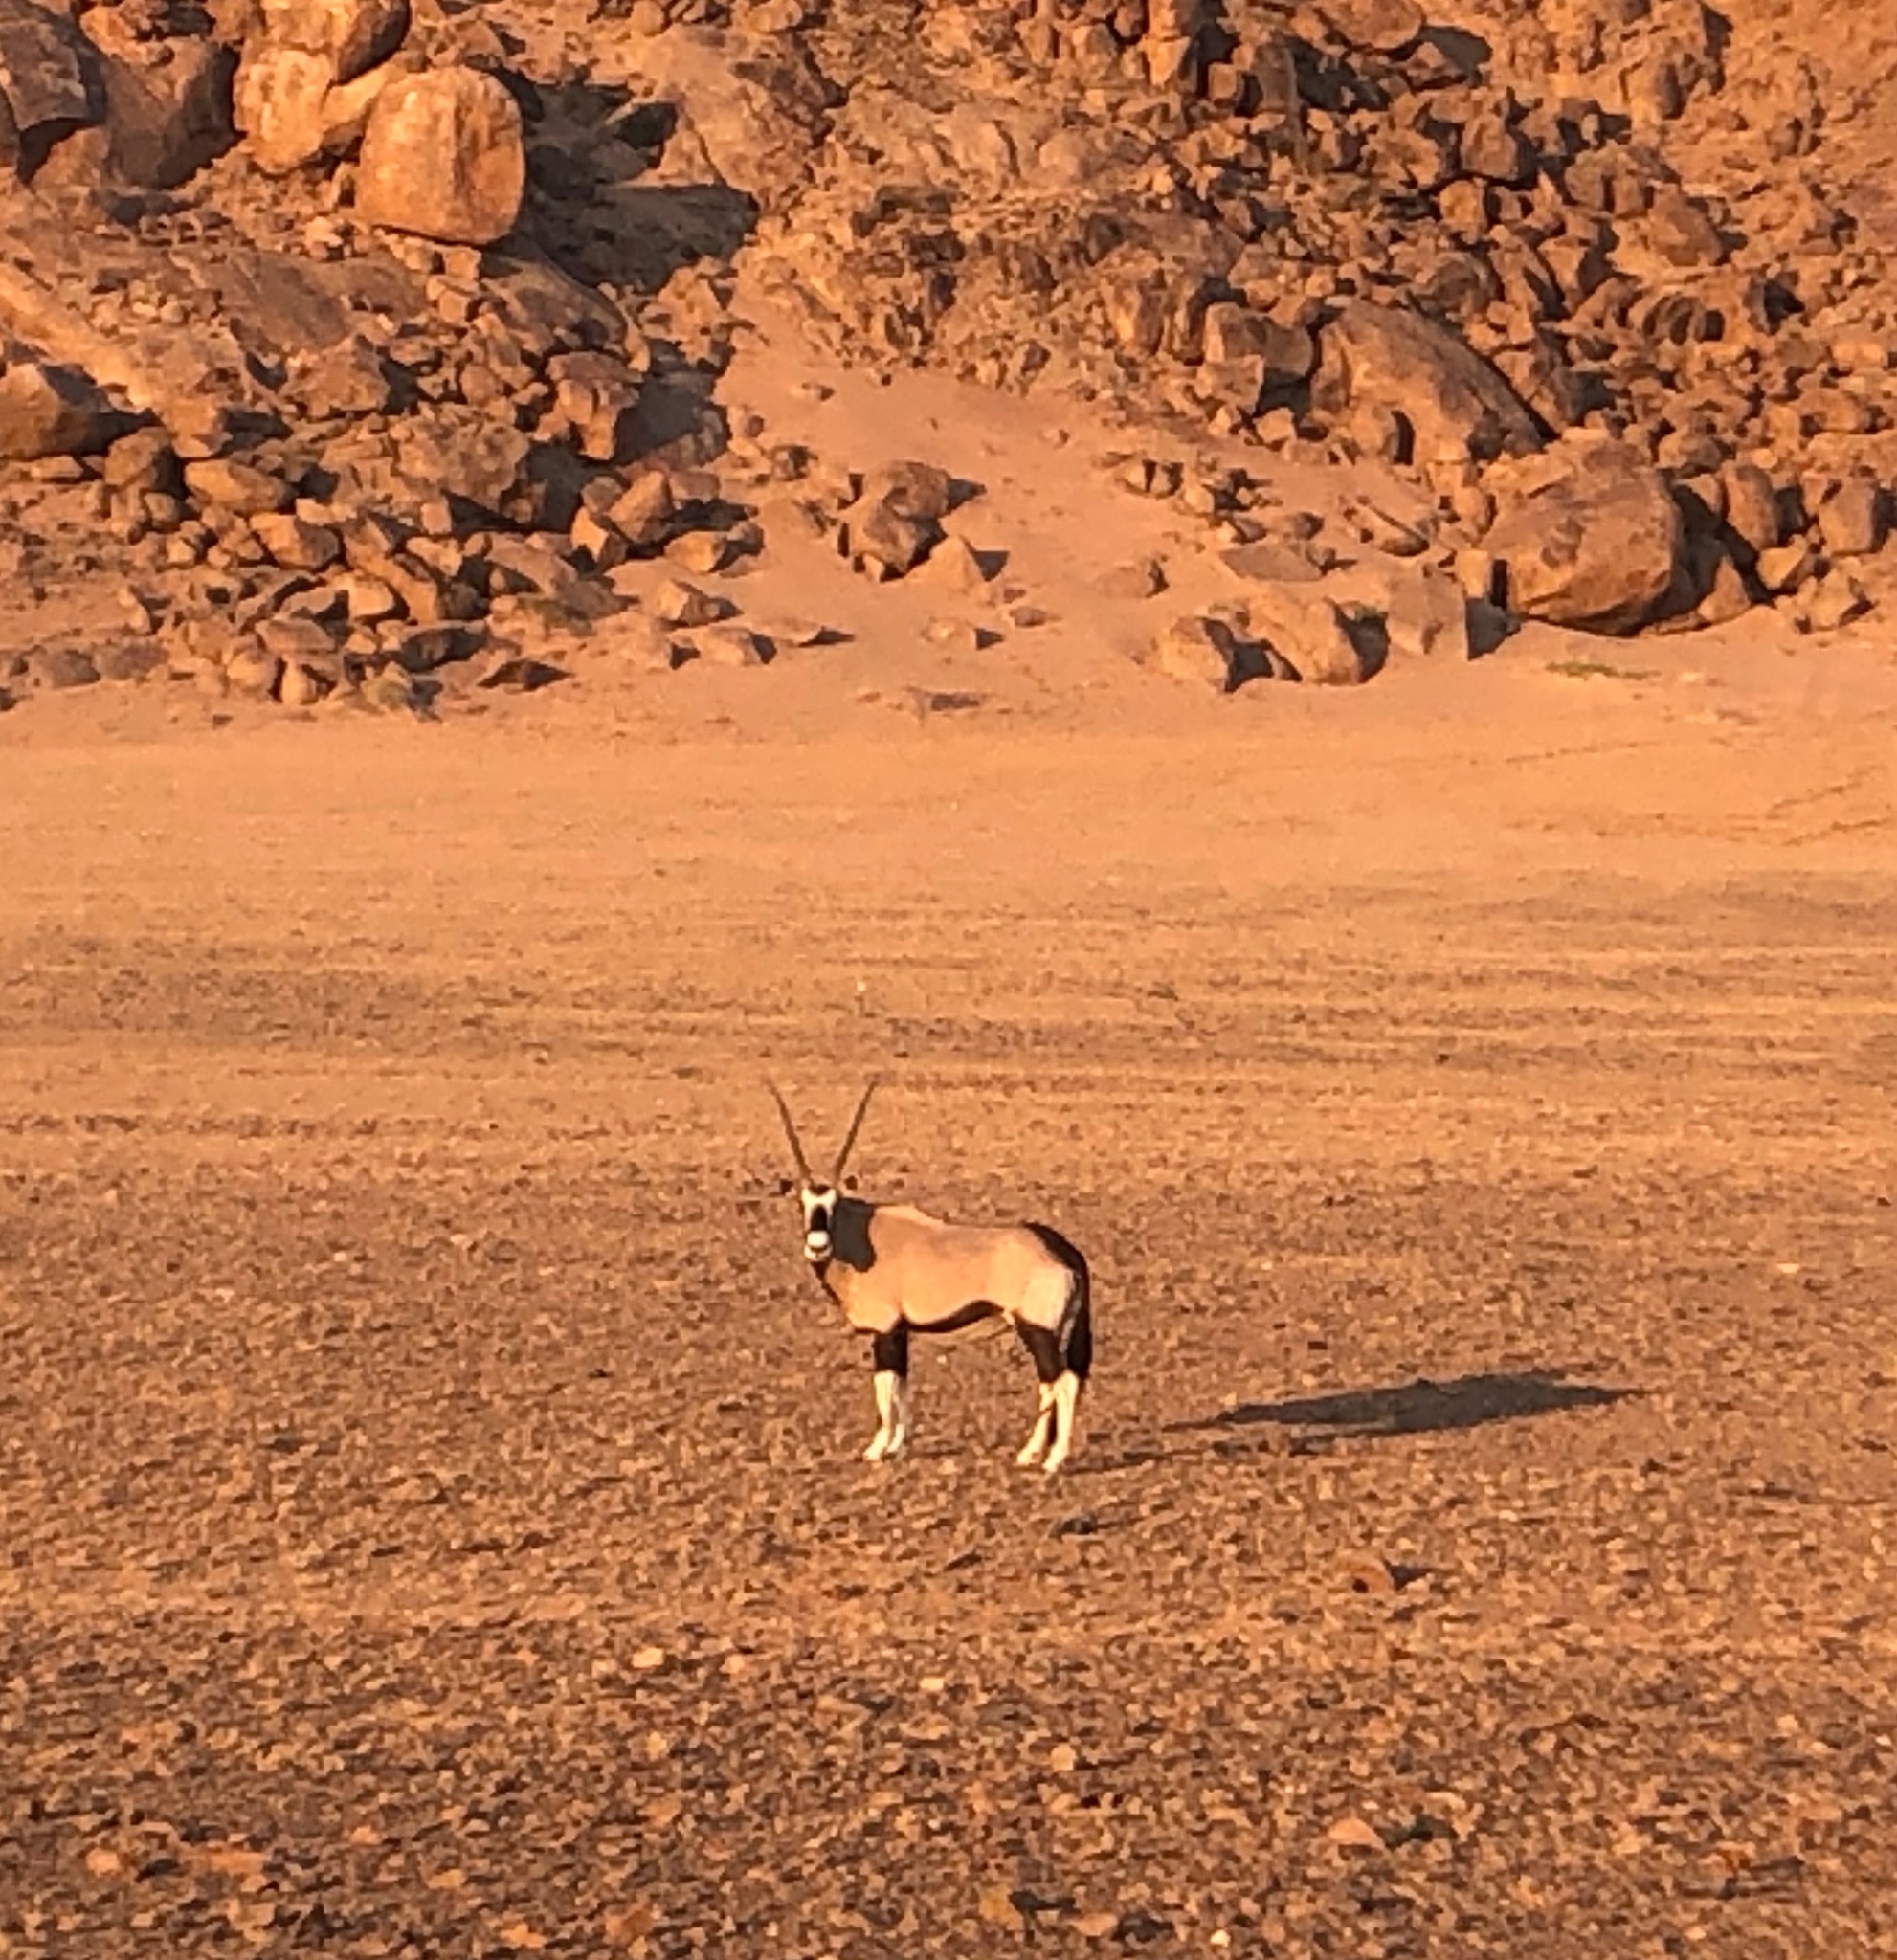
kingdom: Animalia
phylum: Chordata
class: Mammalia
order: Artiodactyla
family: Bovidae
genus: Oryx
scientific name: Oryx gazella
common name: Gemsbok
